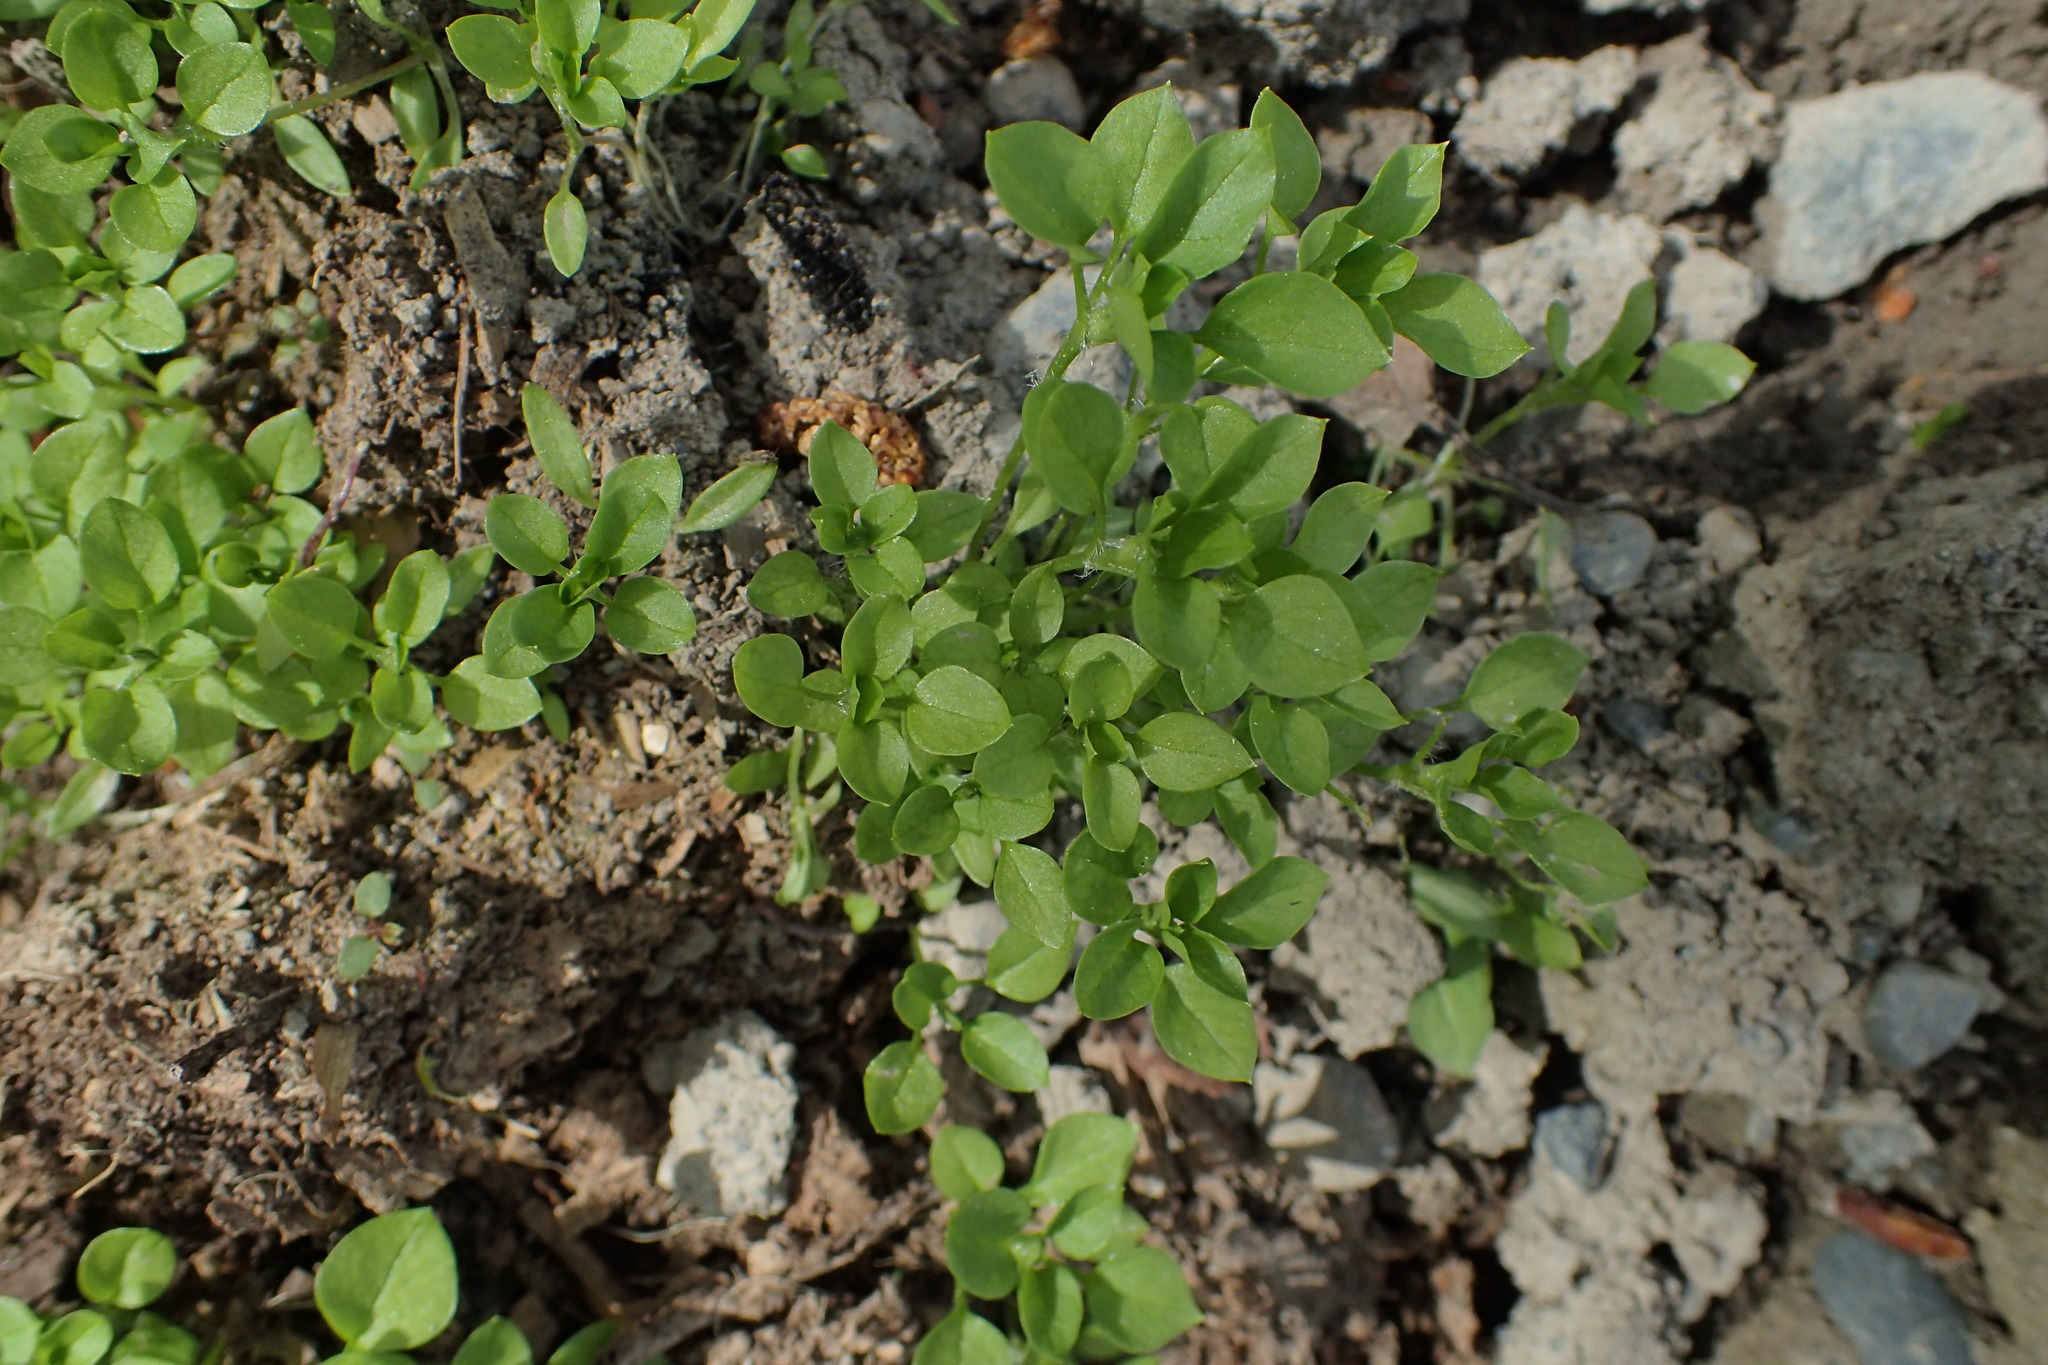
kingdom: Plantae
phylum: Tracheophyta
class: Magnoliopsida
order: Caryophyllales
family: Caryophyllaceae
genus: Stellaria
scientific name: Stellaria media
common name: Common chickweed
